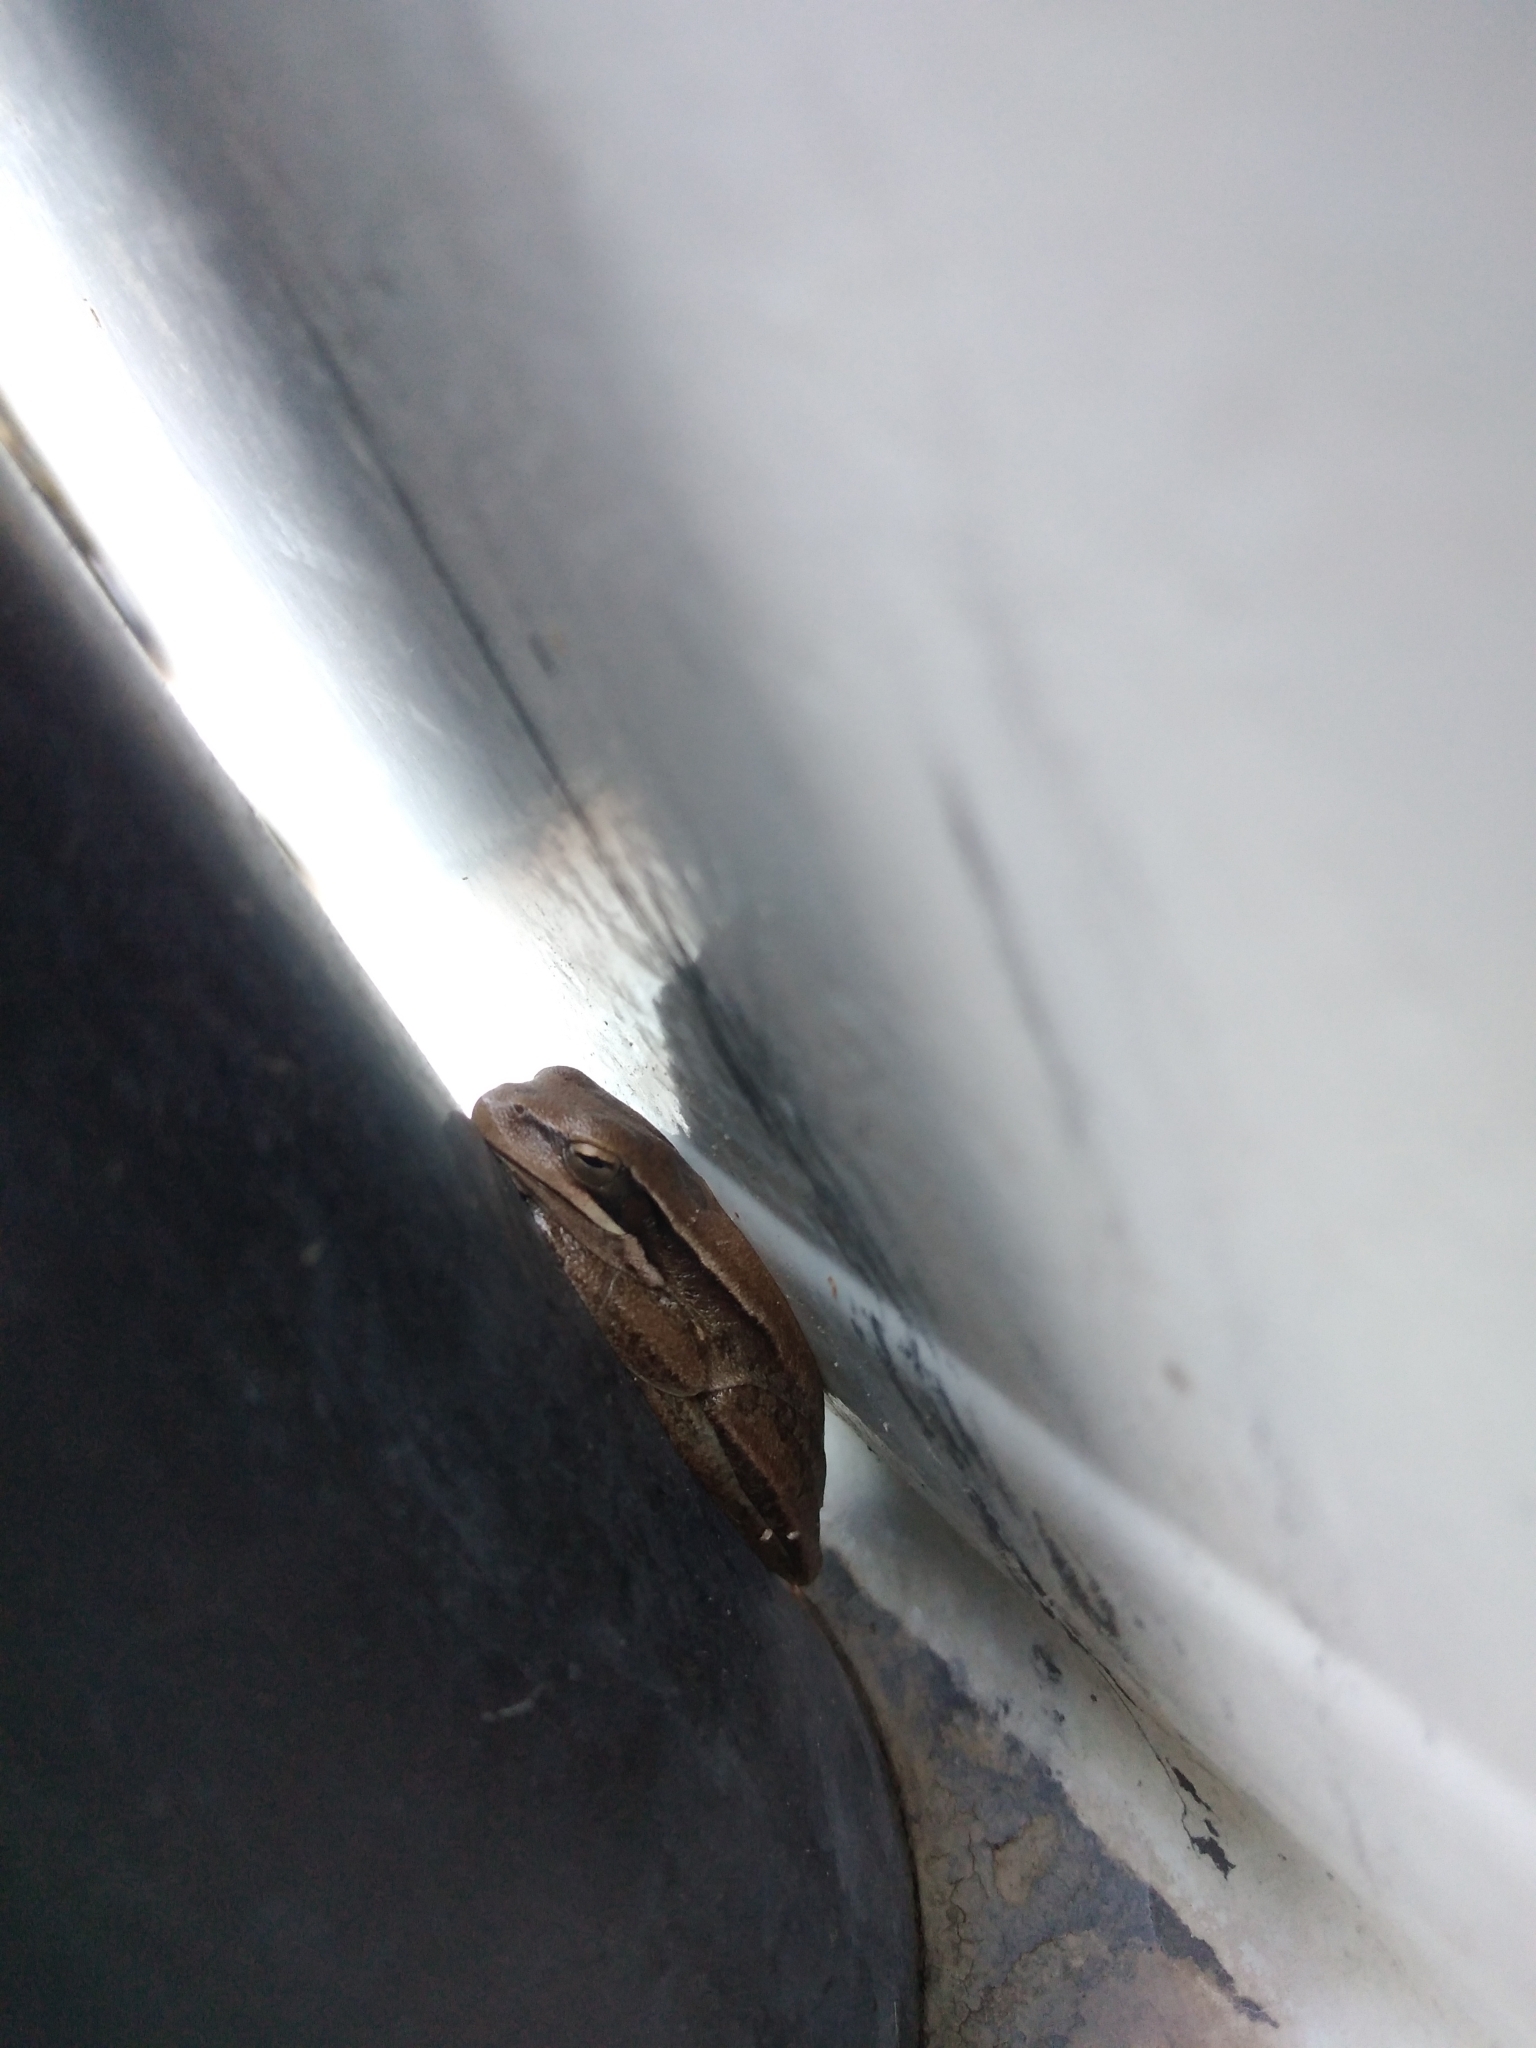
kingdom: Animalia
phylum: Chordata
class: Amphibia
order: Anura
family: Hylidae
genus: Boana
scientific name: Boana pulchella
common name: Montevideo treefrog
